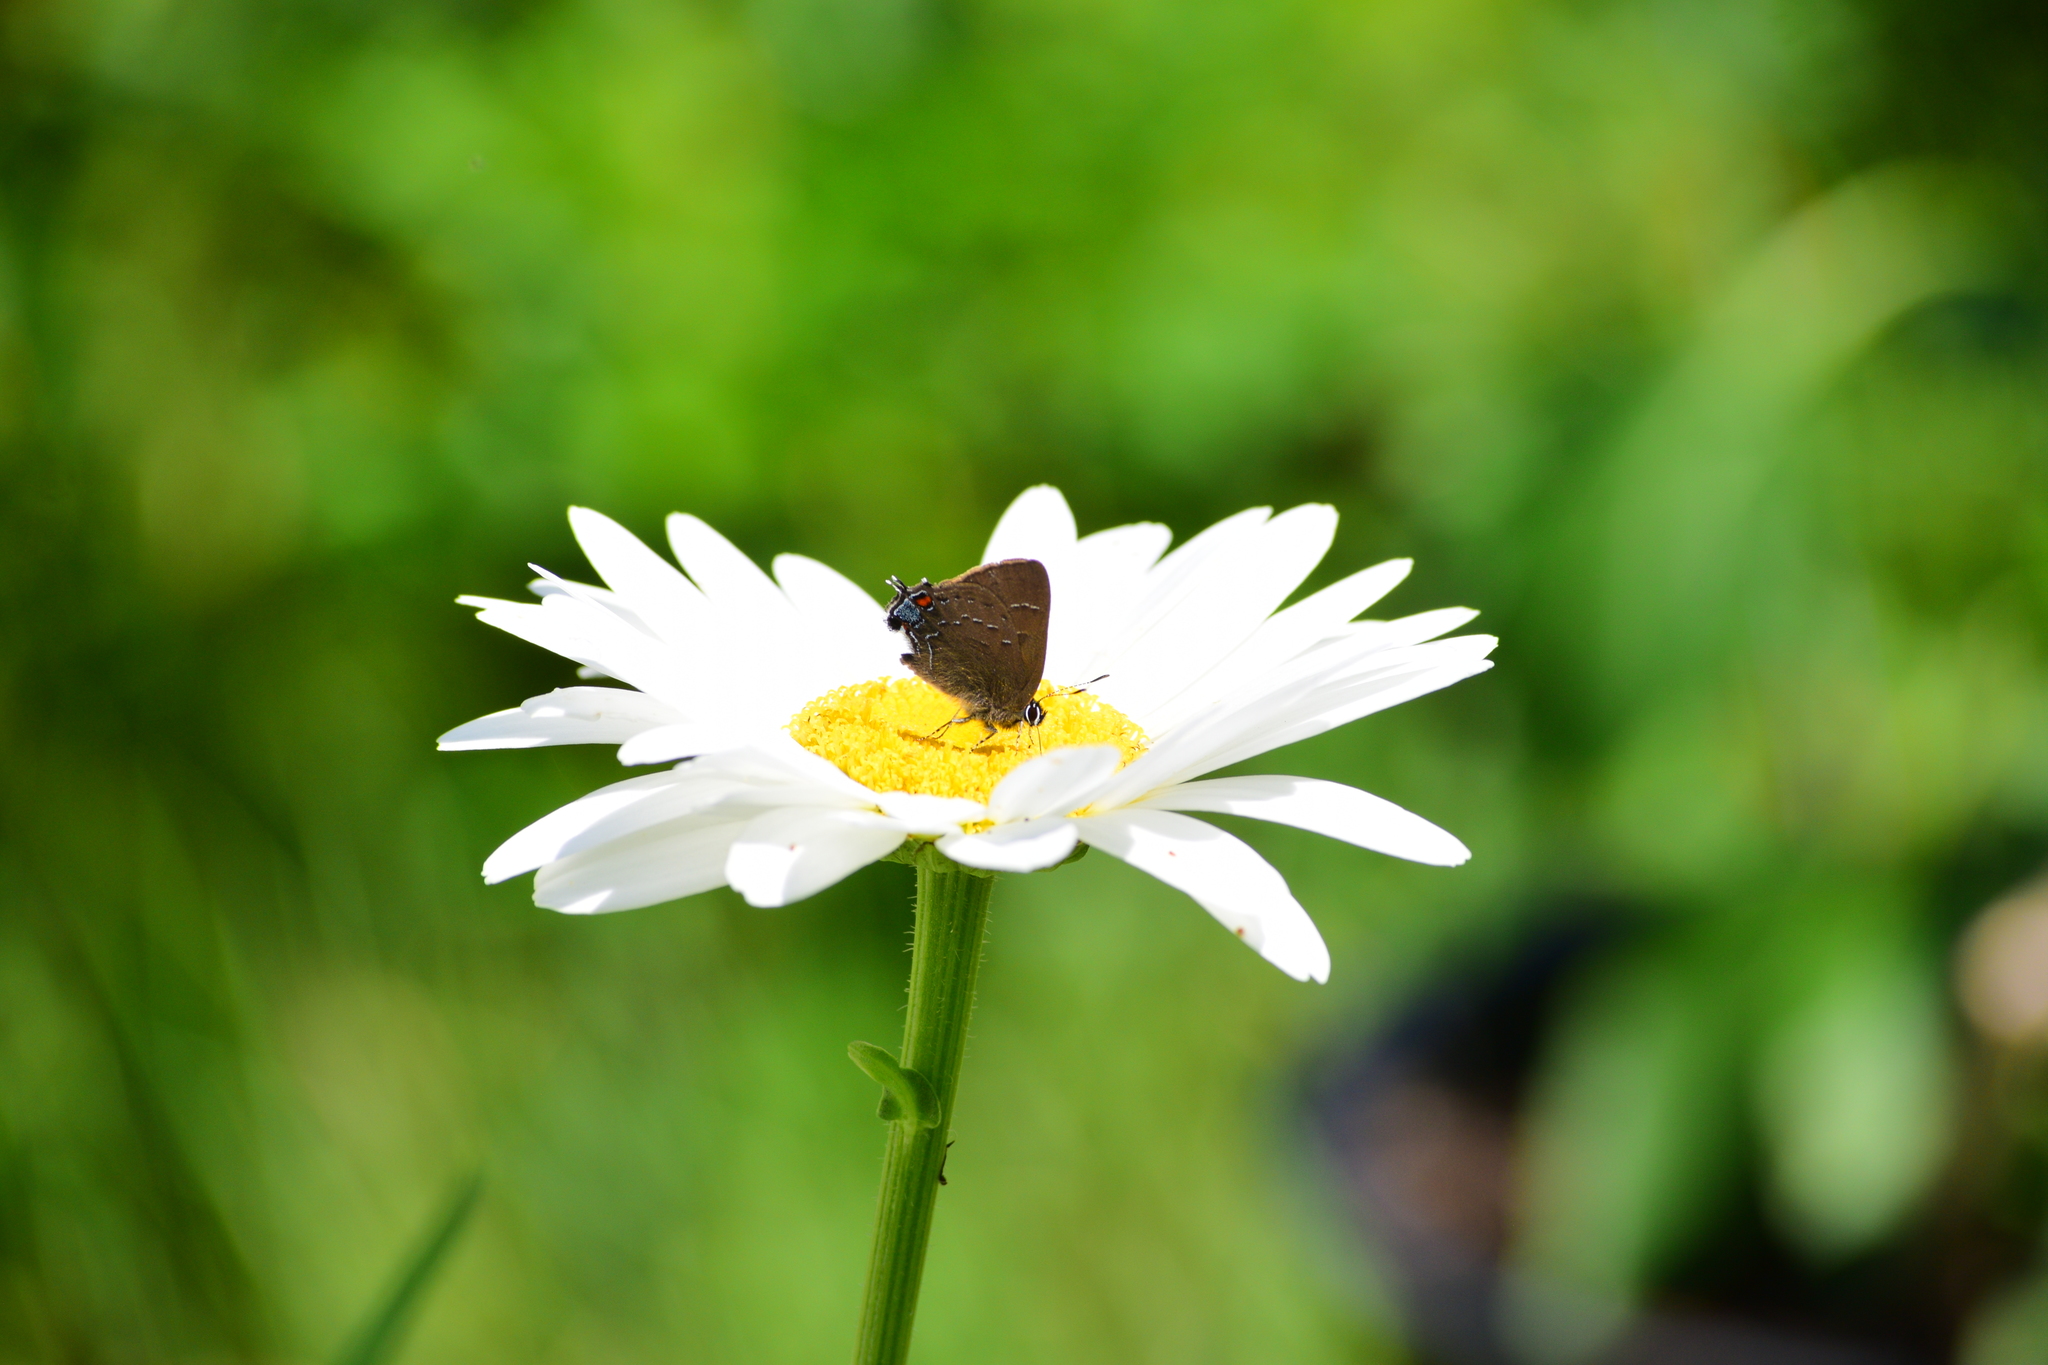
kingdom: Animalia
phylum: Arthropoda
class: Insecta
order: Lepidoptera
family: Lycaenidae
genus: Satyrium
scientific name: Satyrium calanus
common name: Banded hairstreak
